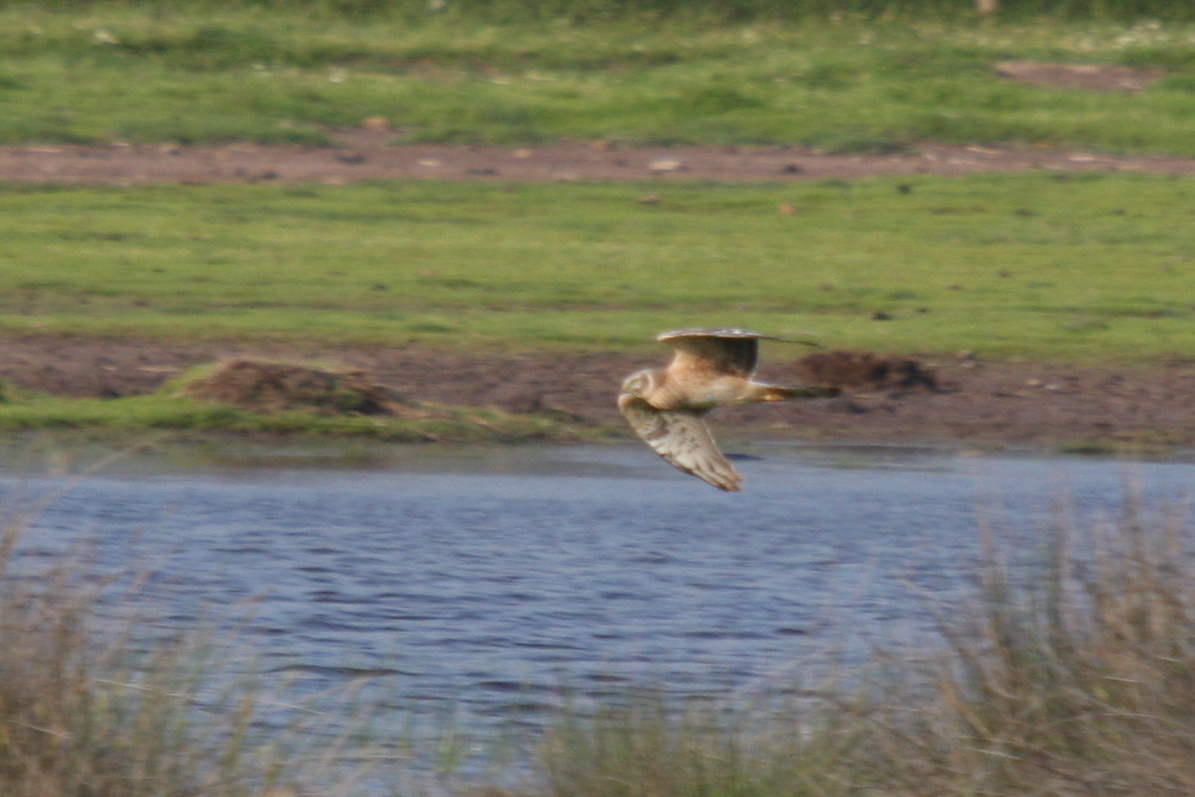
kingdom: Animalia
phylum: Chordata
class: Aves
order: Accipitriformes
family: Accipitridae
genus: Circus
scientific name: Circus macrourus
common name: Pallid harrier
